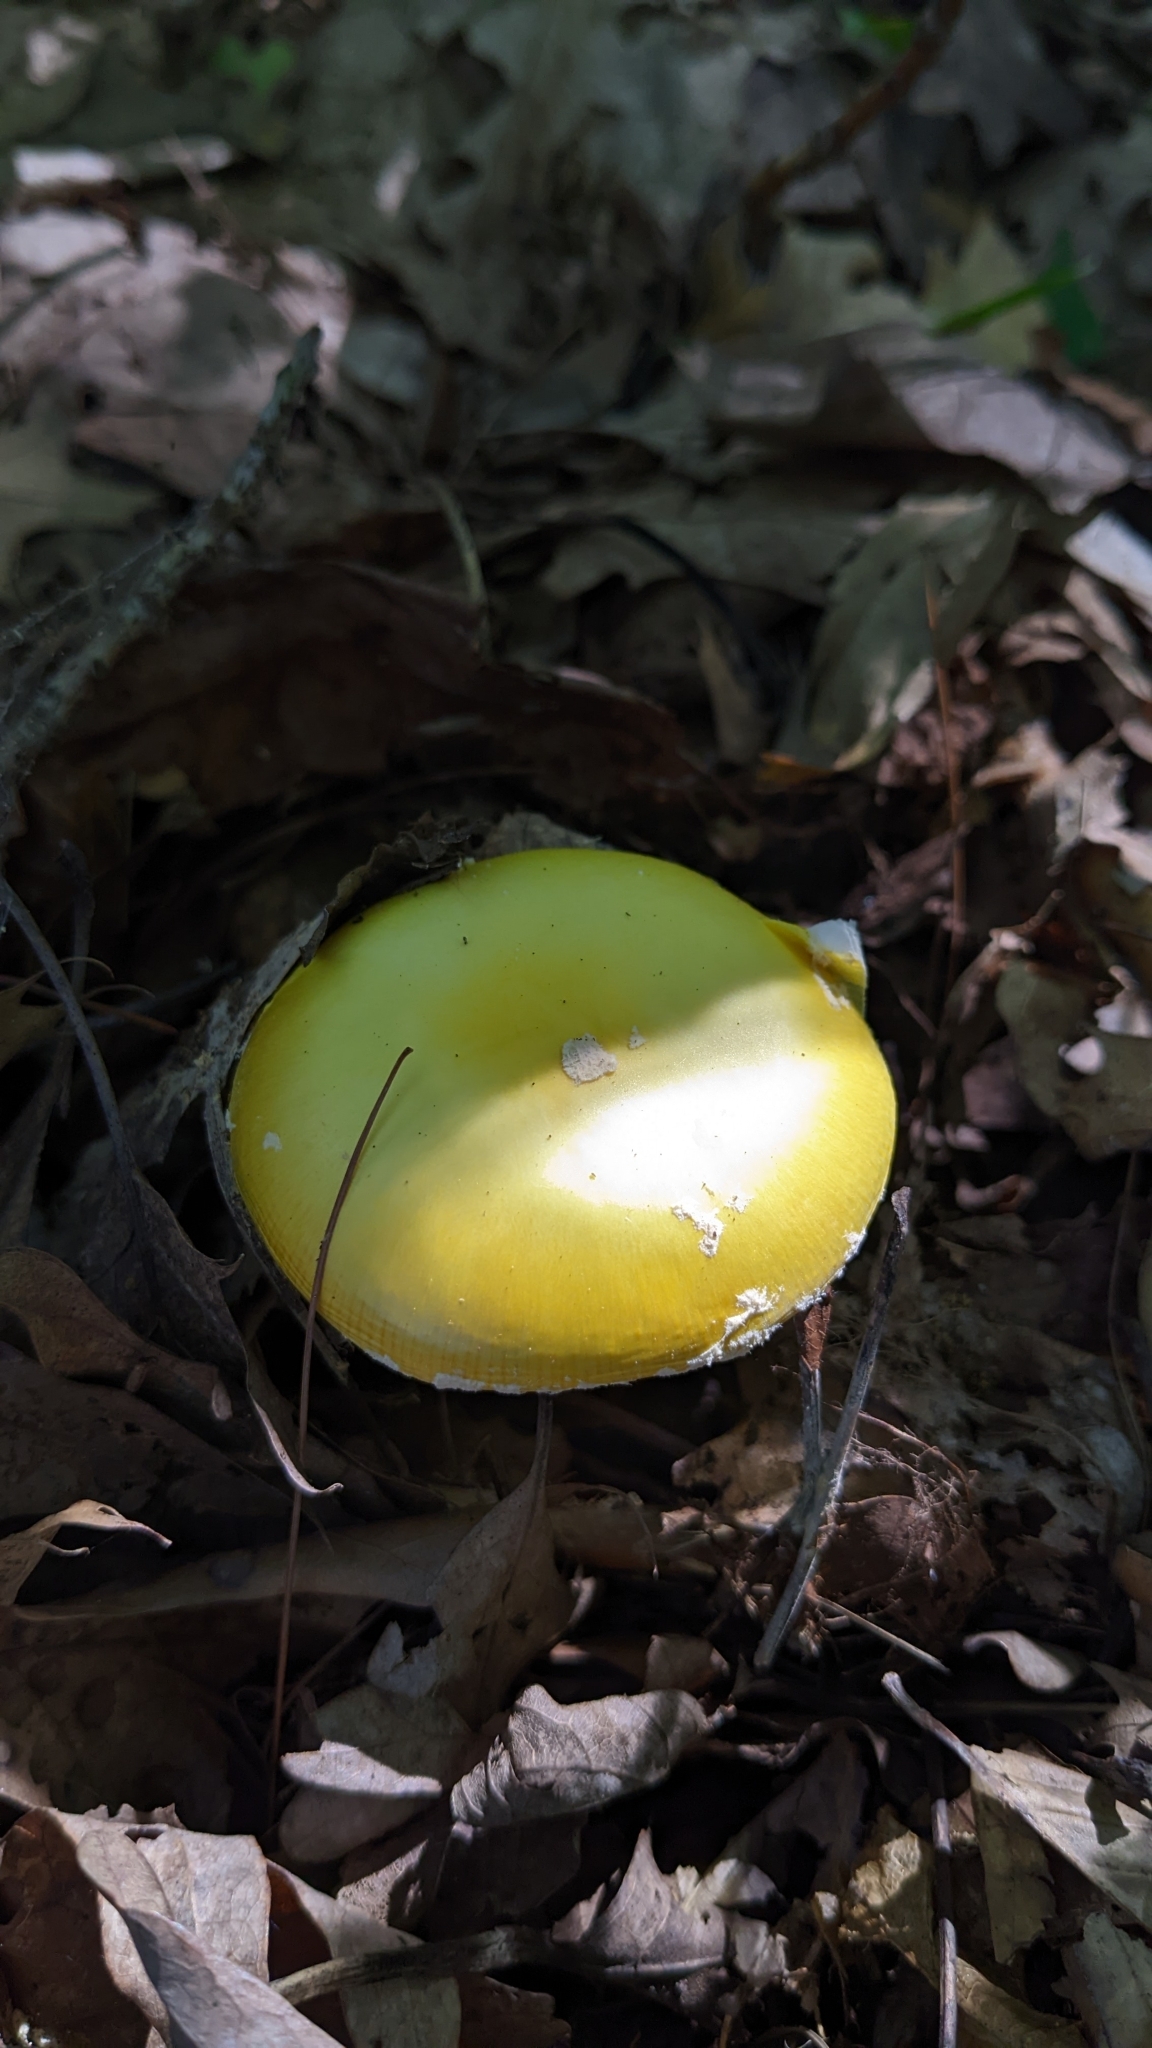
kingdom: Fungi
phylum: Basidiomycota
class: Agaricomycetes
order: Agaricales
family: Amanitaceae
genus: Amanita
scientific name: Amanita muscaria
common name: Fly agaric
